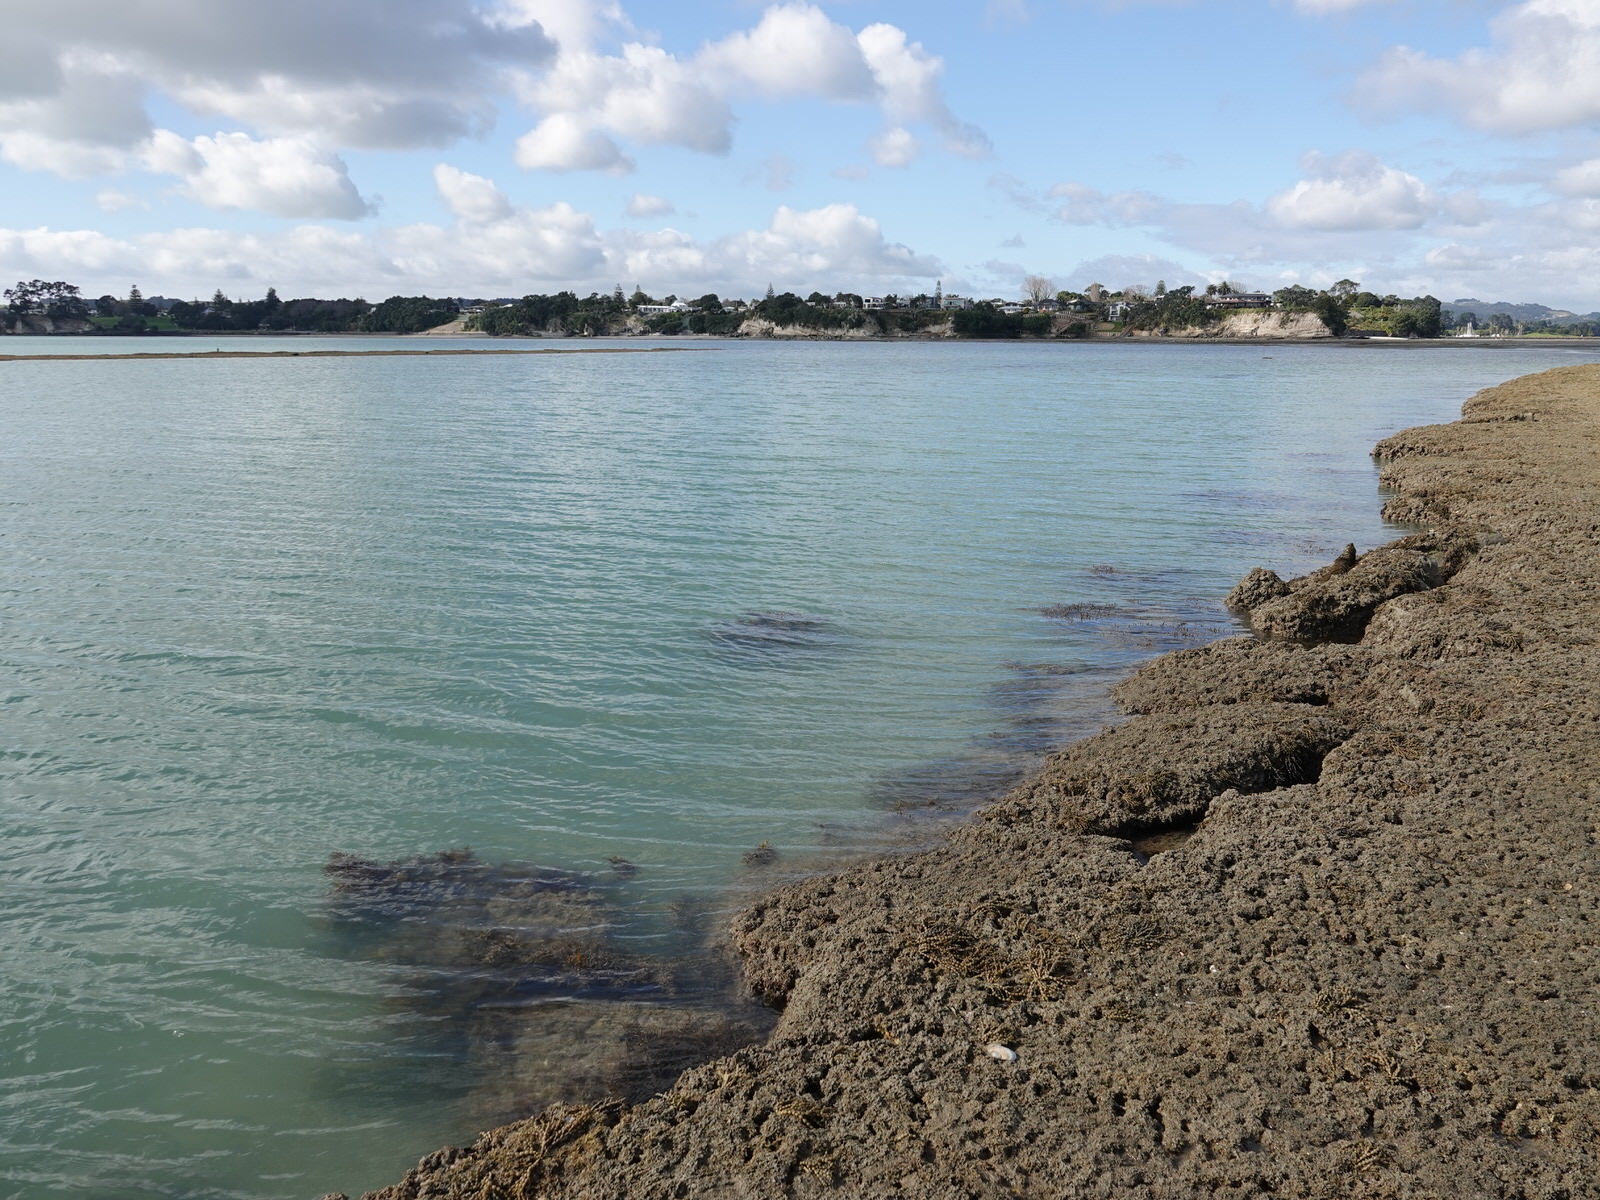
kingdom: Chromista
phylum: Ochrophyta
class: Phaeophyceae
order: Fucales
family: Sargassaceae
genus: Carpophyllum
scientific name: Carpophyllum maschalocarpum
